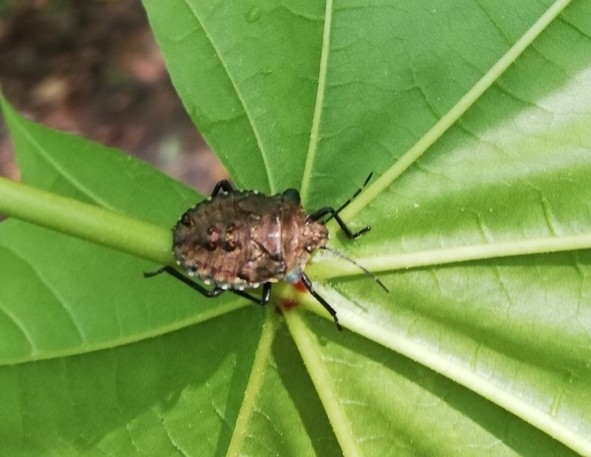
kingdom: Animalia
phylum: Arthropoda
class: Insecta
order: Hemiptera
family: Pentatomidae
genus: Pentatoma
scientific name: Pentatoma rufipes
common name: Forest bug
